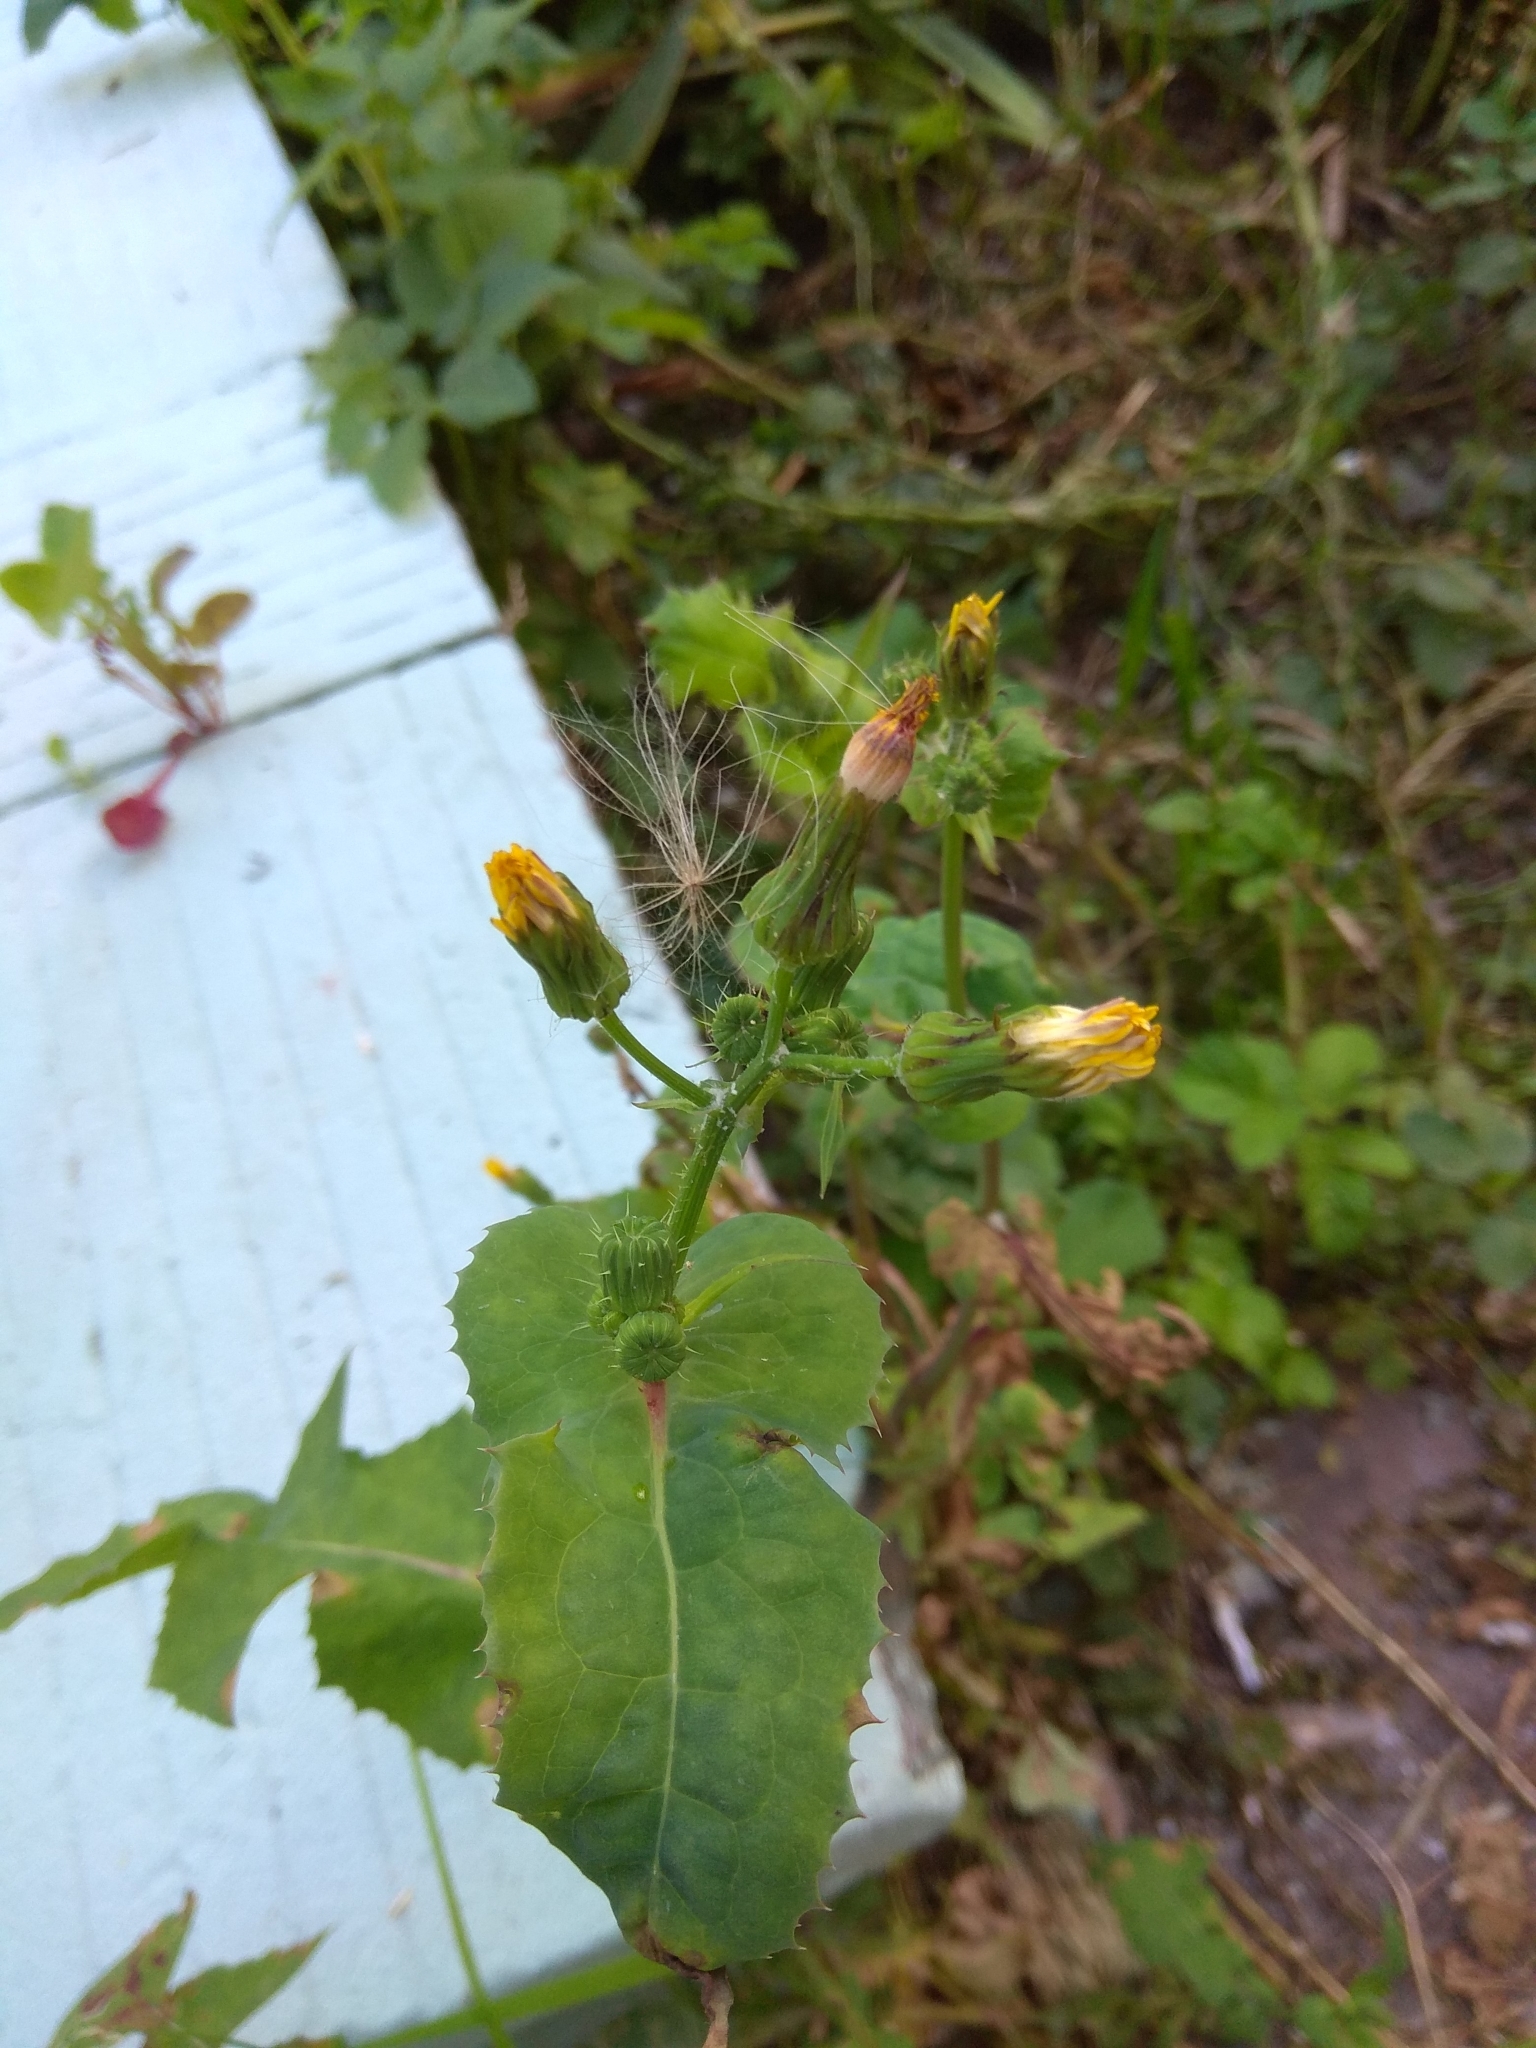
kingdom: Plantae
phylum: Tracheophyta
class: Magnoliopsida
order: Asterales
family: Asteraceae
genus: Sonchus
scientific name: Sonchus oleraceus
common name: Common sowthistle
